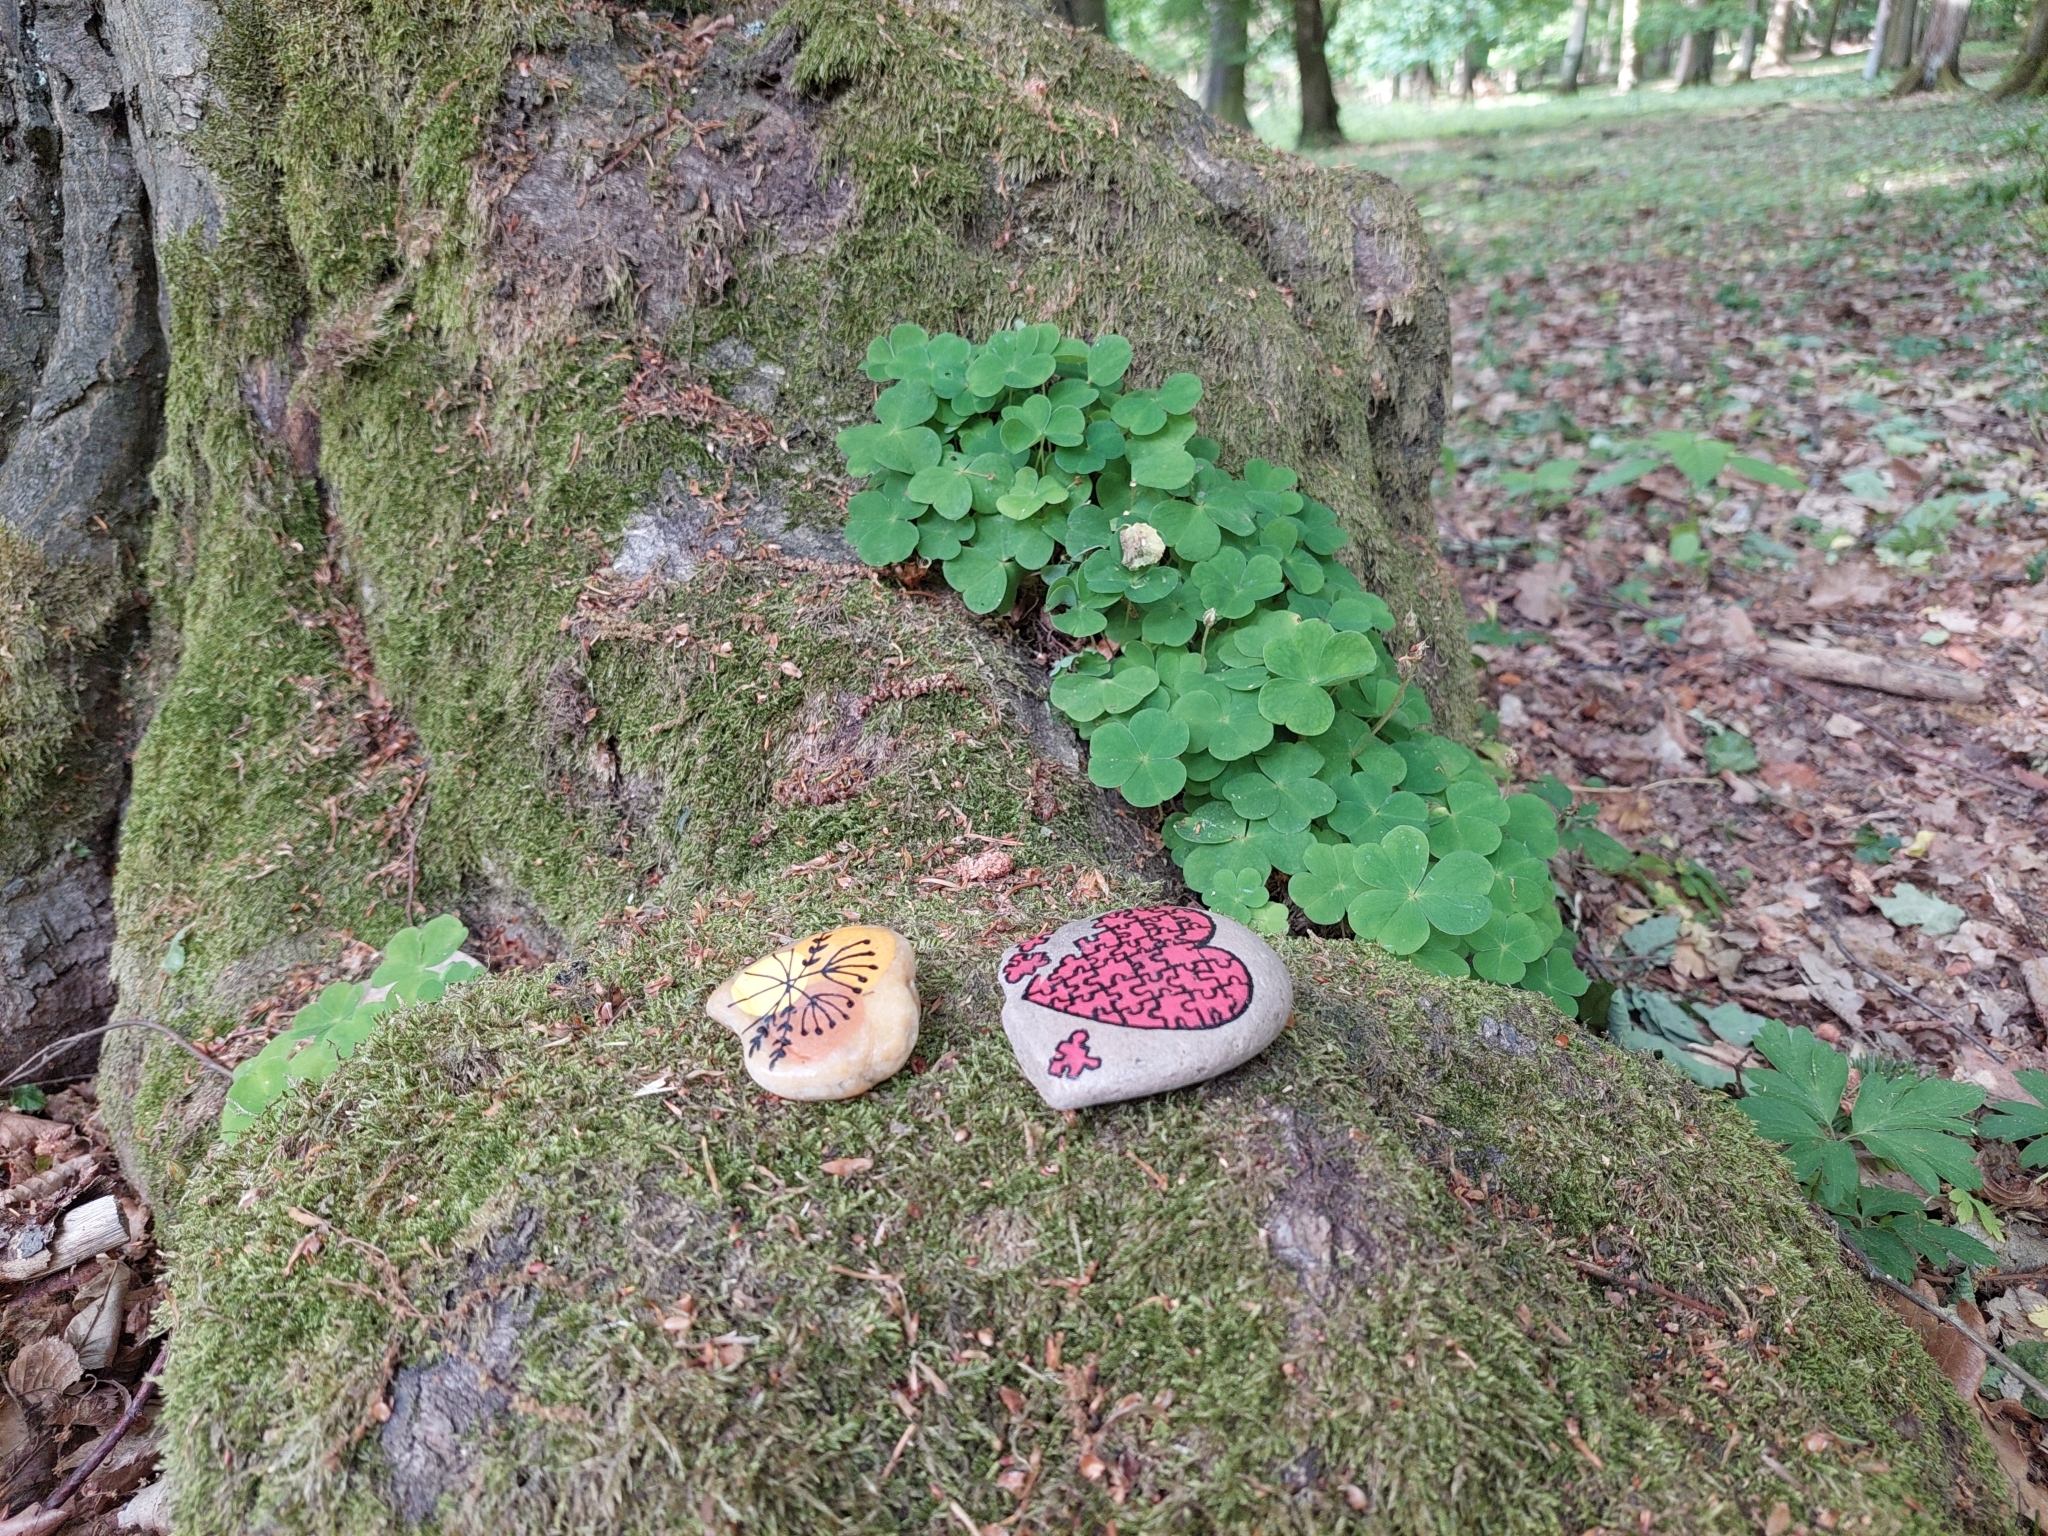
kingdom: Plantae
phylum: Tracheophyta
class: Magnoliopsida
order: Oxalidales
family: Oxalidaceae
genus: Oxalis
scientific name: Oxalis acetosella
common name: Wood-sorrel
